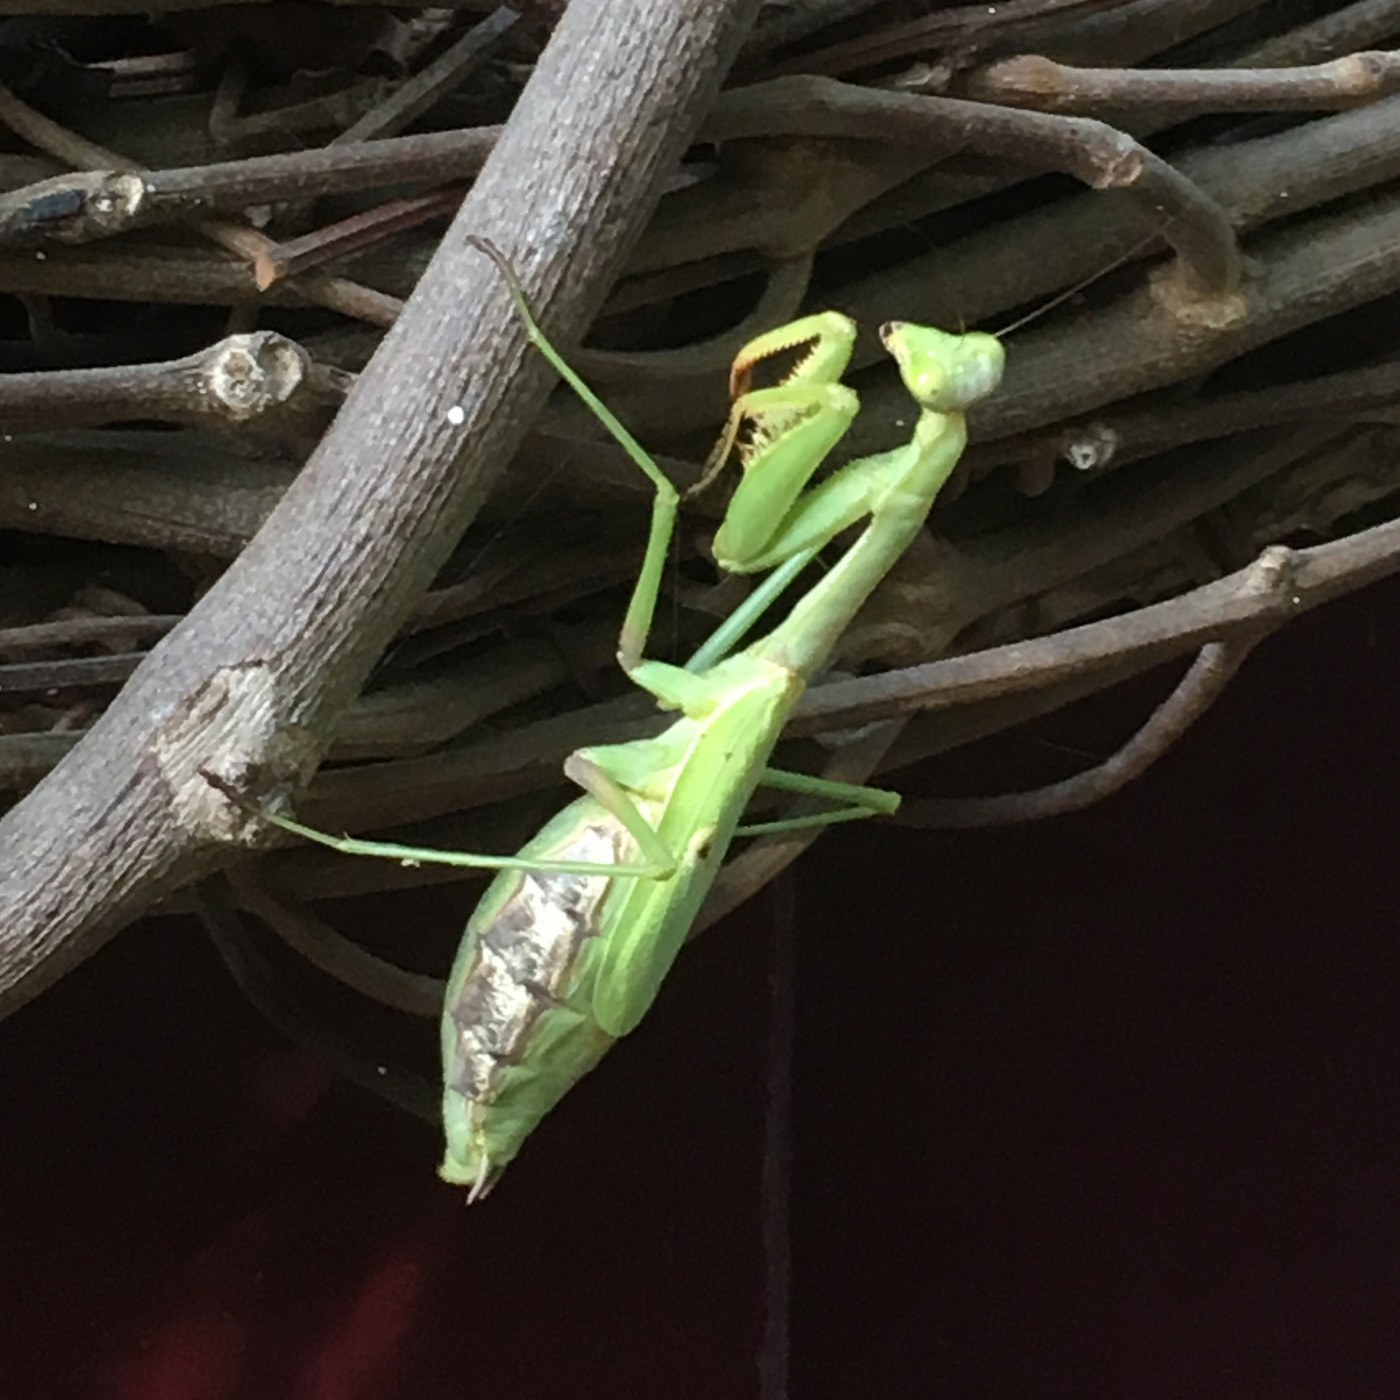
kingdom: Animalia
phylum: Arthropoda
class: Insecta
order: Mantodea
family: Mantidae
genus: Stagmomantis
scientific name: Stagmomantis carolina
